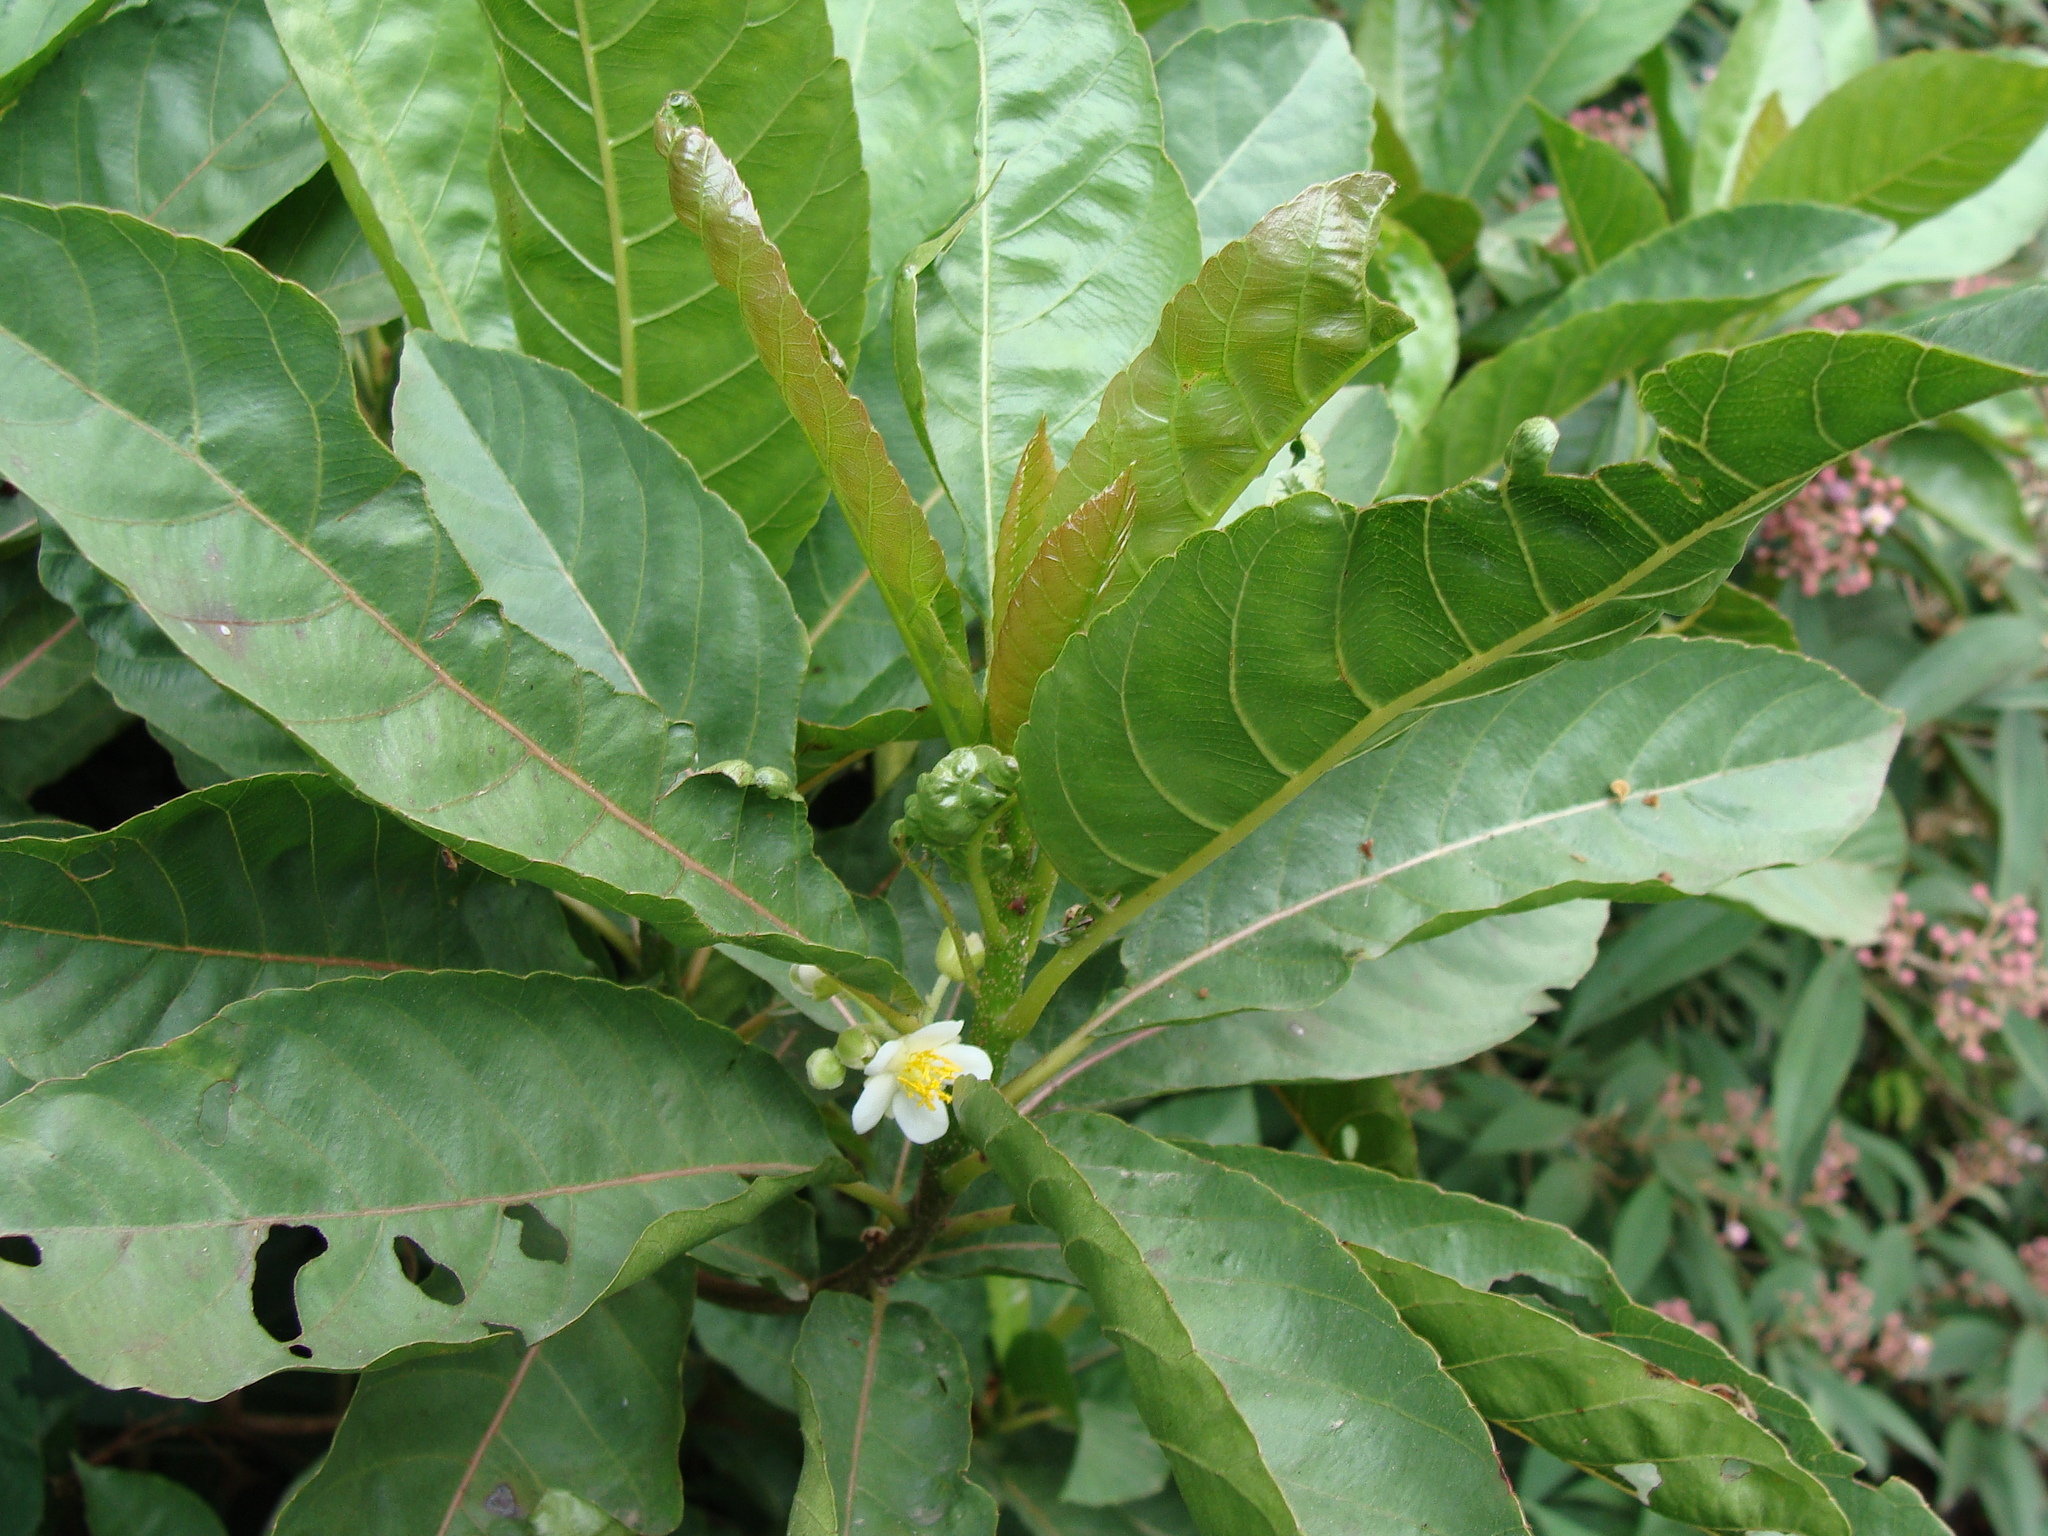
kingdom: Plantae
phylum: Tracheophyta
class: Magnoliopsida
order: Ericales
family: Actinidiaceae
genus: Saurauia
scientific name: Saurauia yasicae
